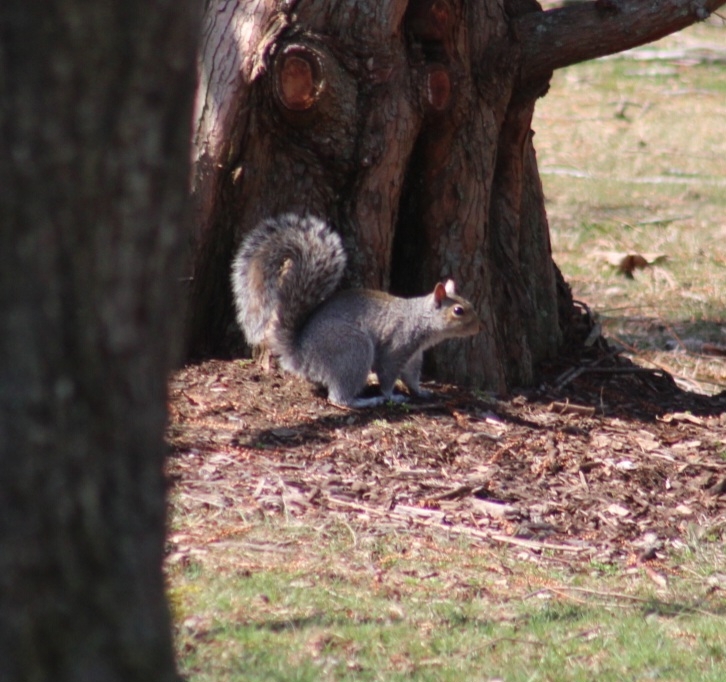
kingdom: Animalia
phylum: Chordata
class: Mammalia
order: Rodentia
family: Sciuridae
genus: Sciurus
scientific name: Sciurus carolinensis
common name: Eastern gray squirrel
